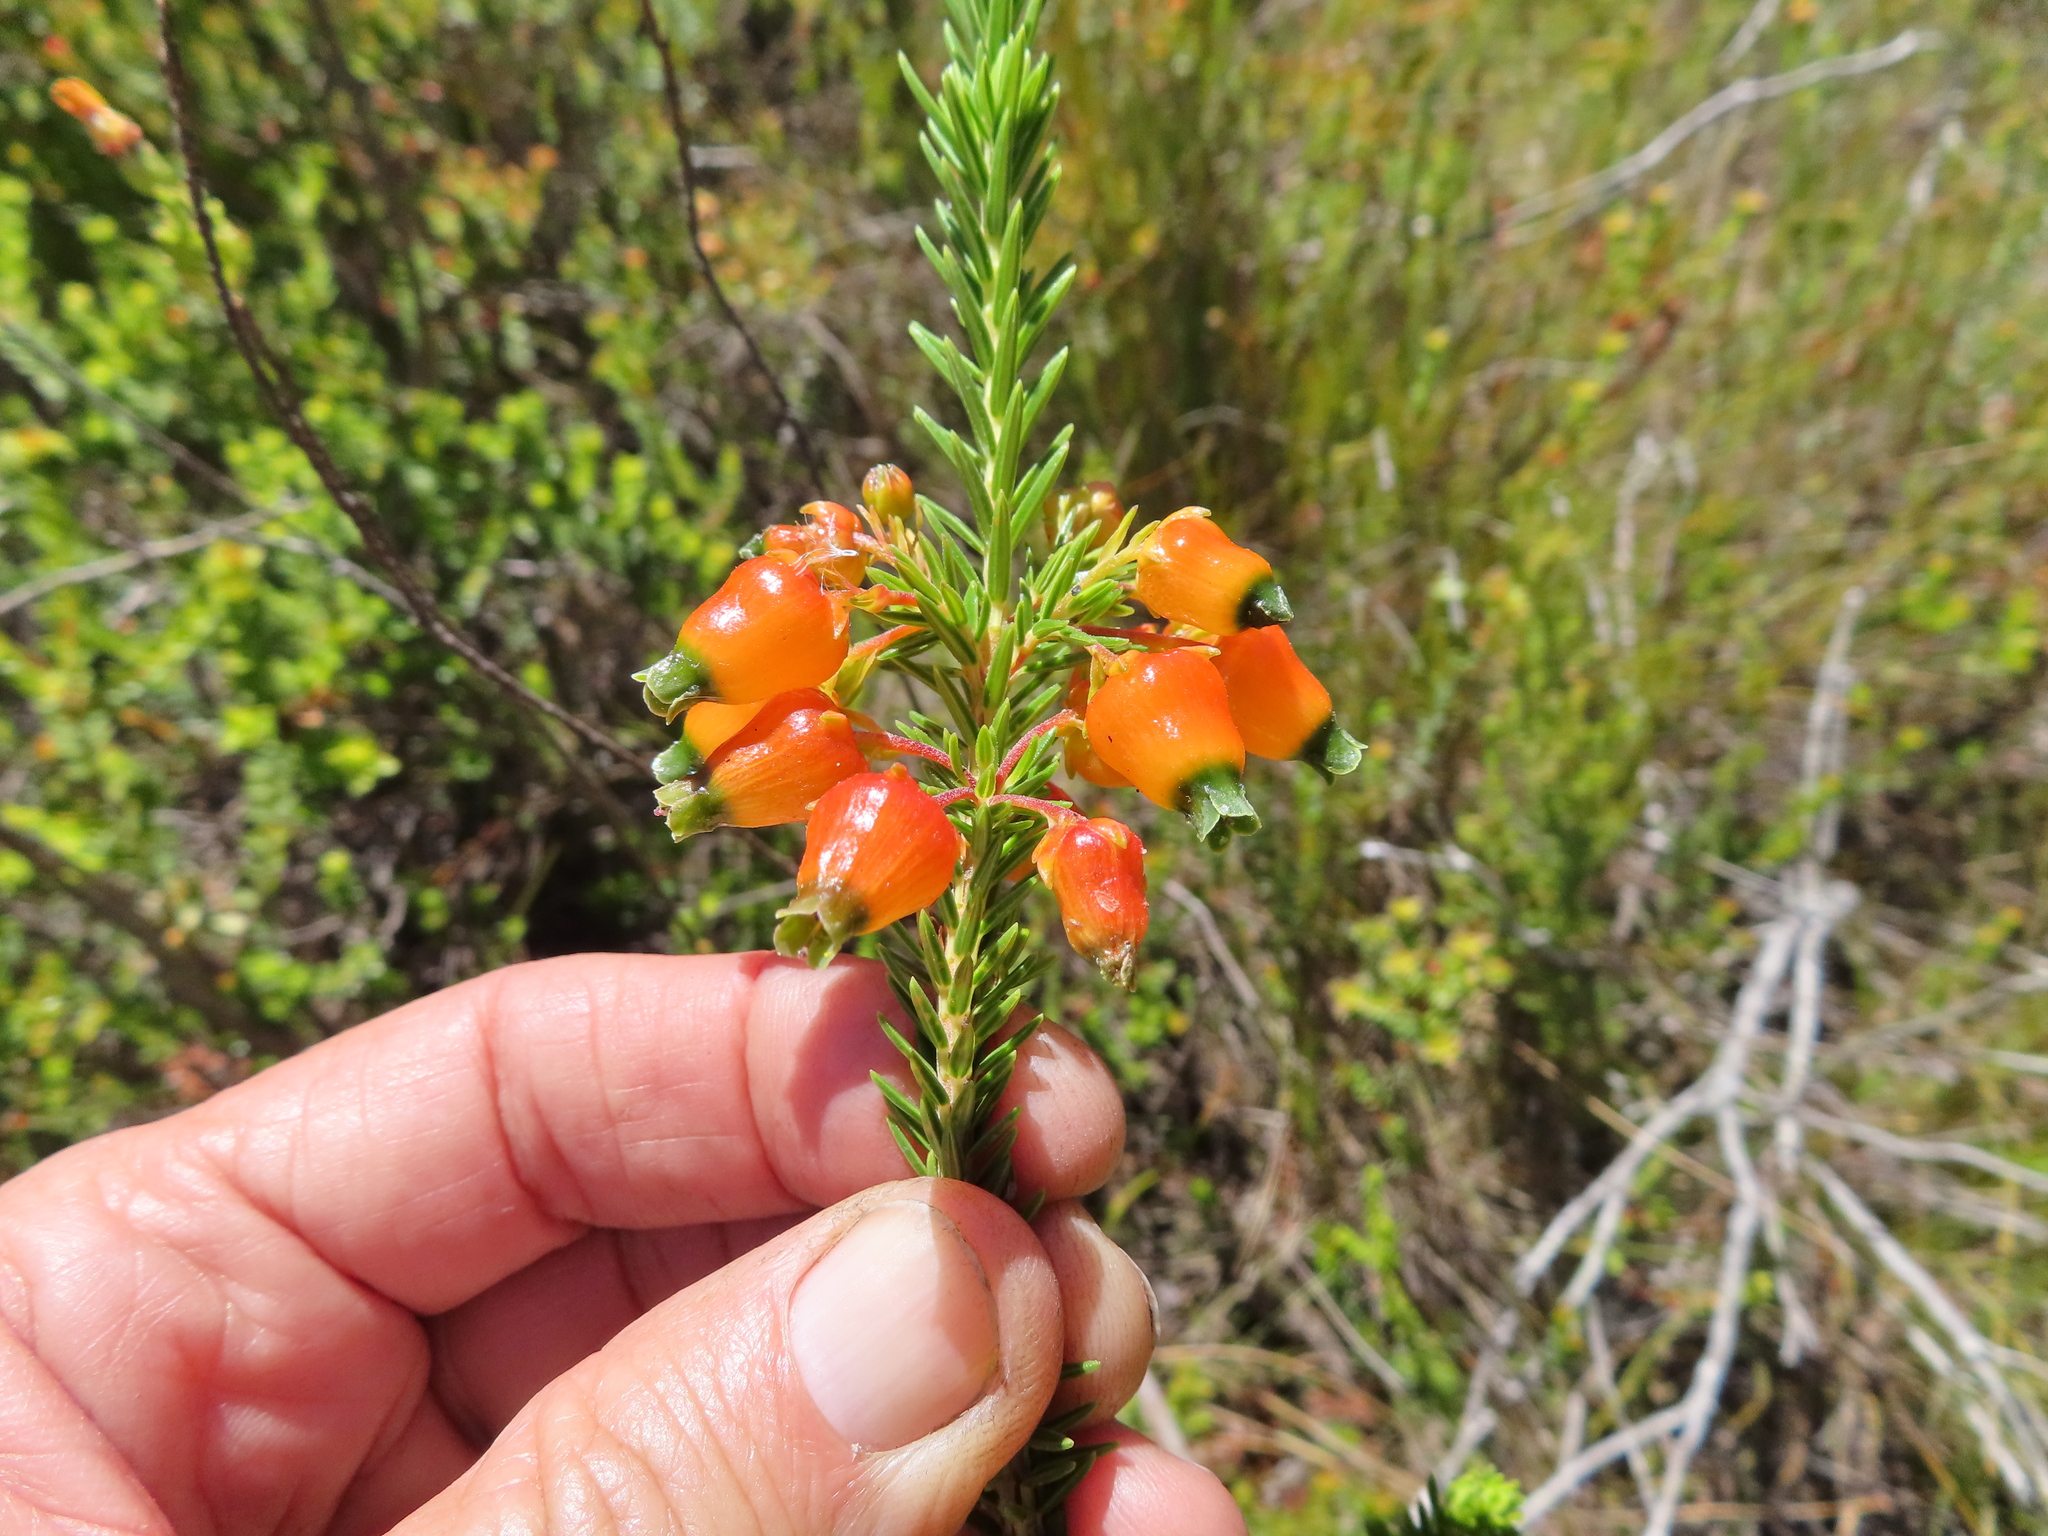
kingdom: Plantae
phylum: Tracheophyta
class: Magnoliopsida
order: Ericales
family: Ericaceae
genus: Erica
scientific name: Erica blenna
